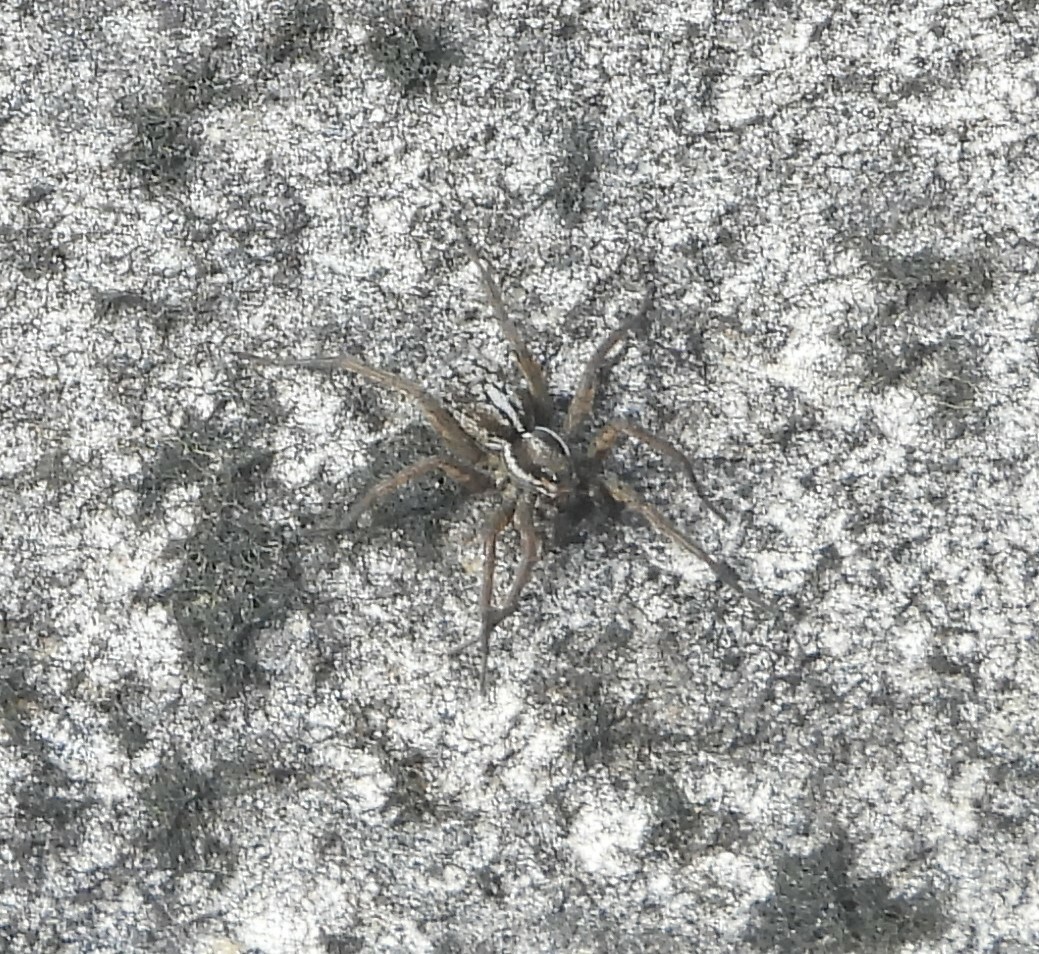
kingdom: Animalia
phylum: Arthropoda
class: Arachnida
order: Araneae
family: Lycosidae
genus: Pardosa
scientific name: Pardosa groenlandica
